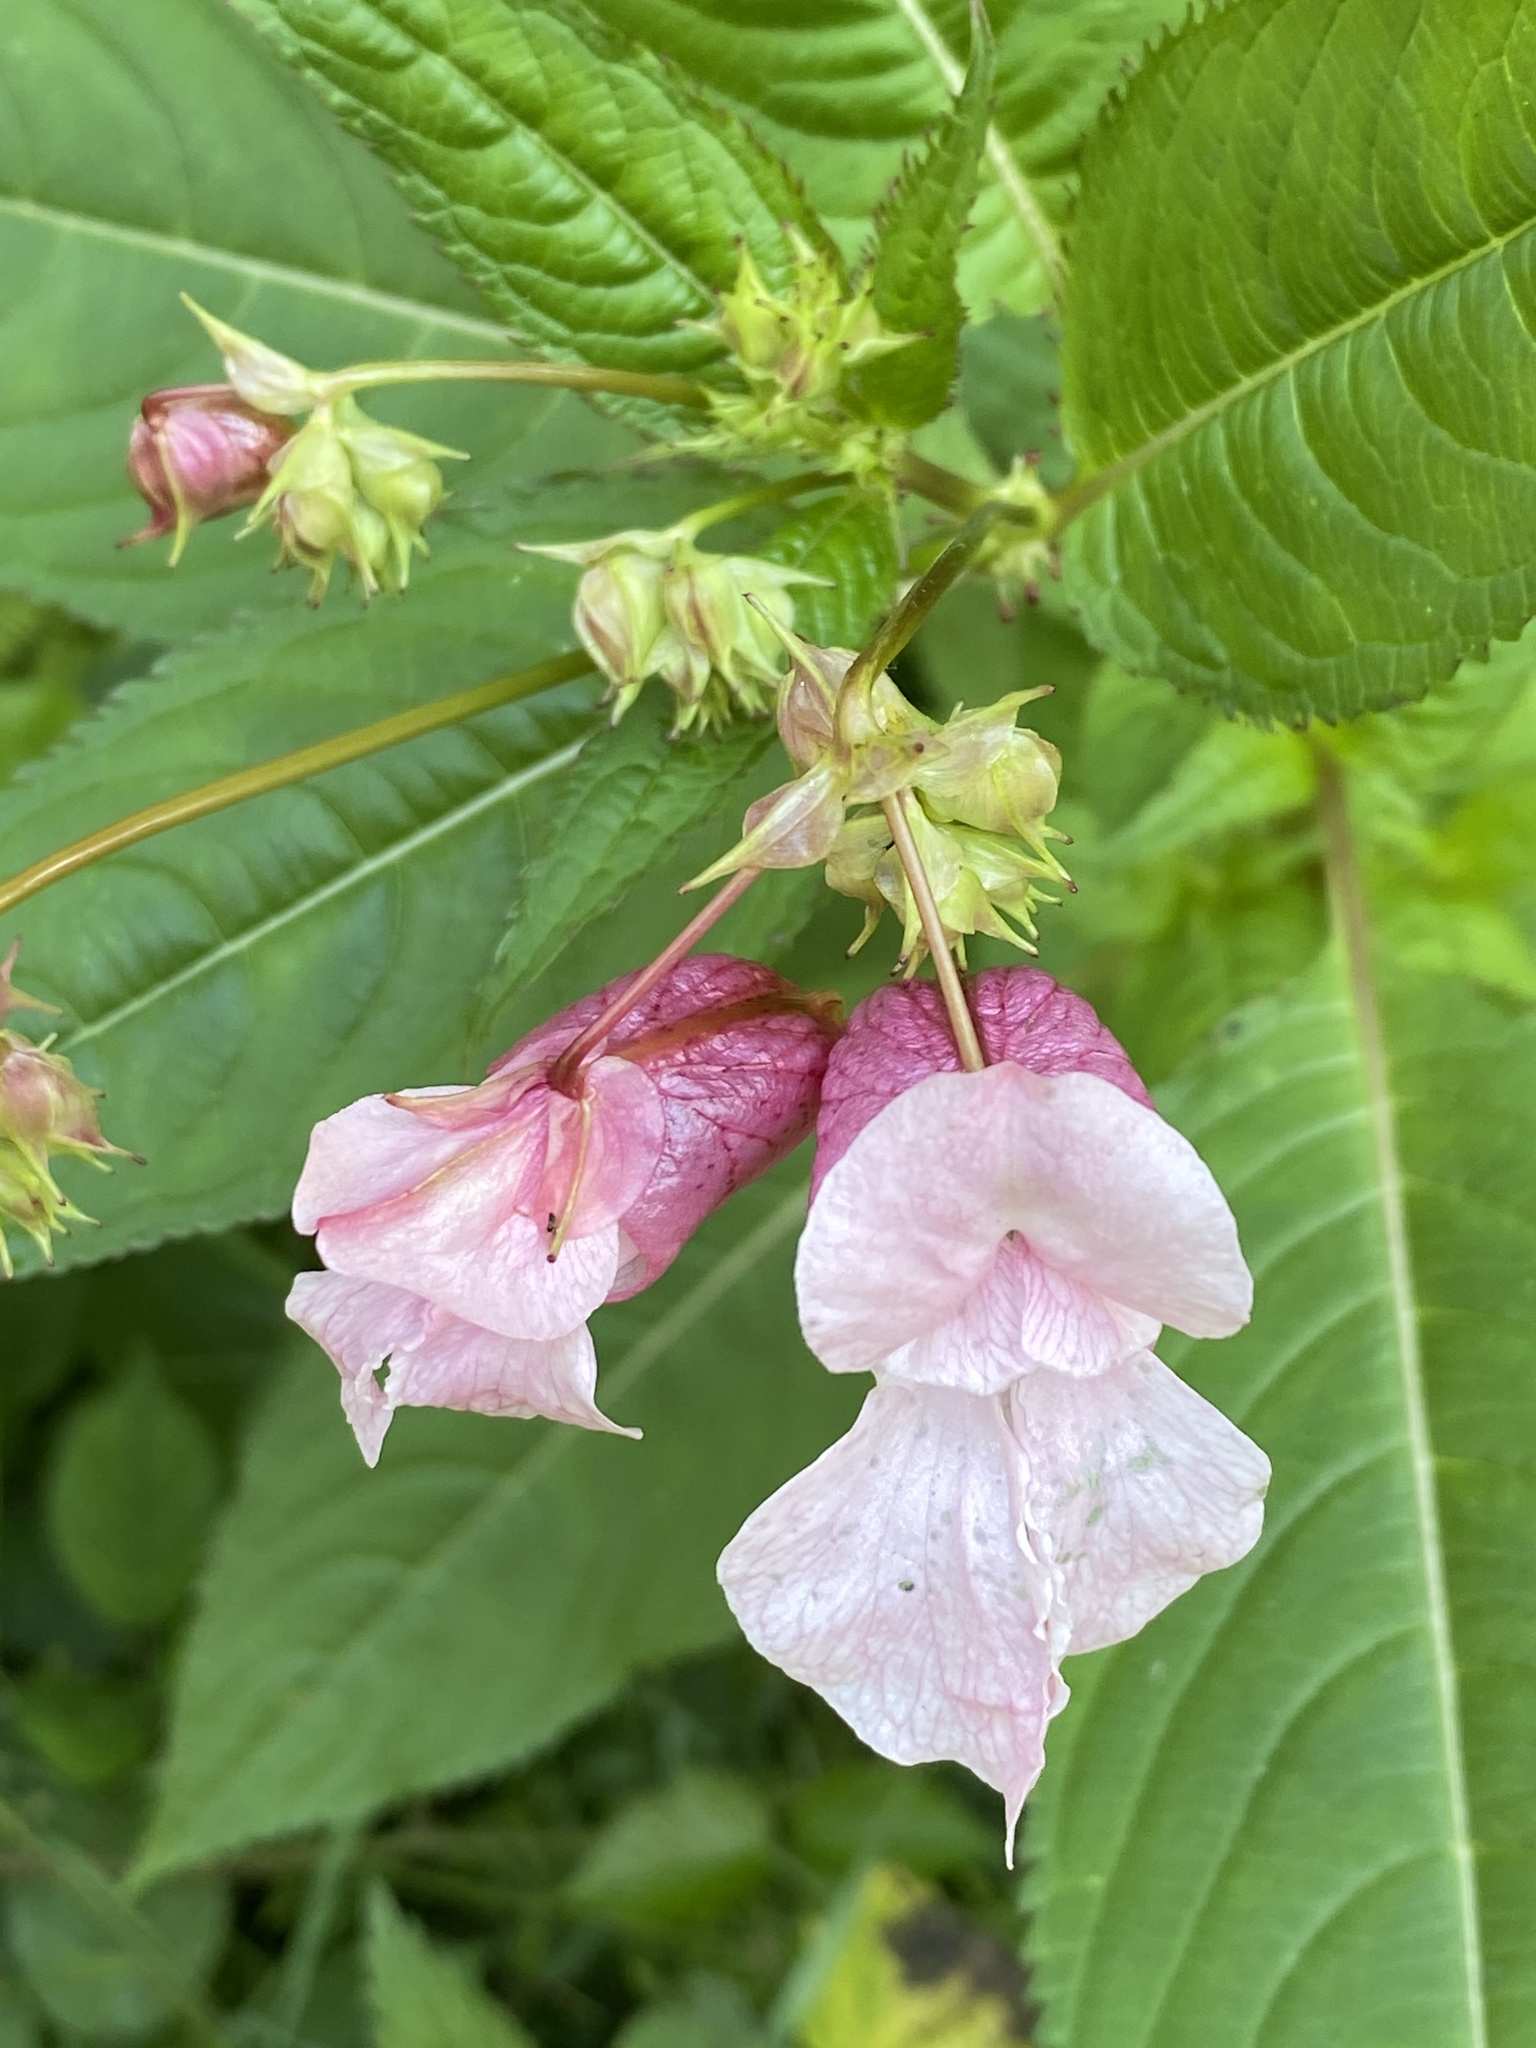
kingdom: Plantae
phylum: Tracheophyta
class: Magnoliopsida
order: Ericales
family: Balsaminaceae
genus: Impatiens
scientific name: Impatiens glandulifera
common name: Himalayan balsam
